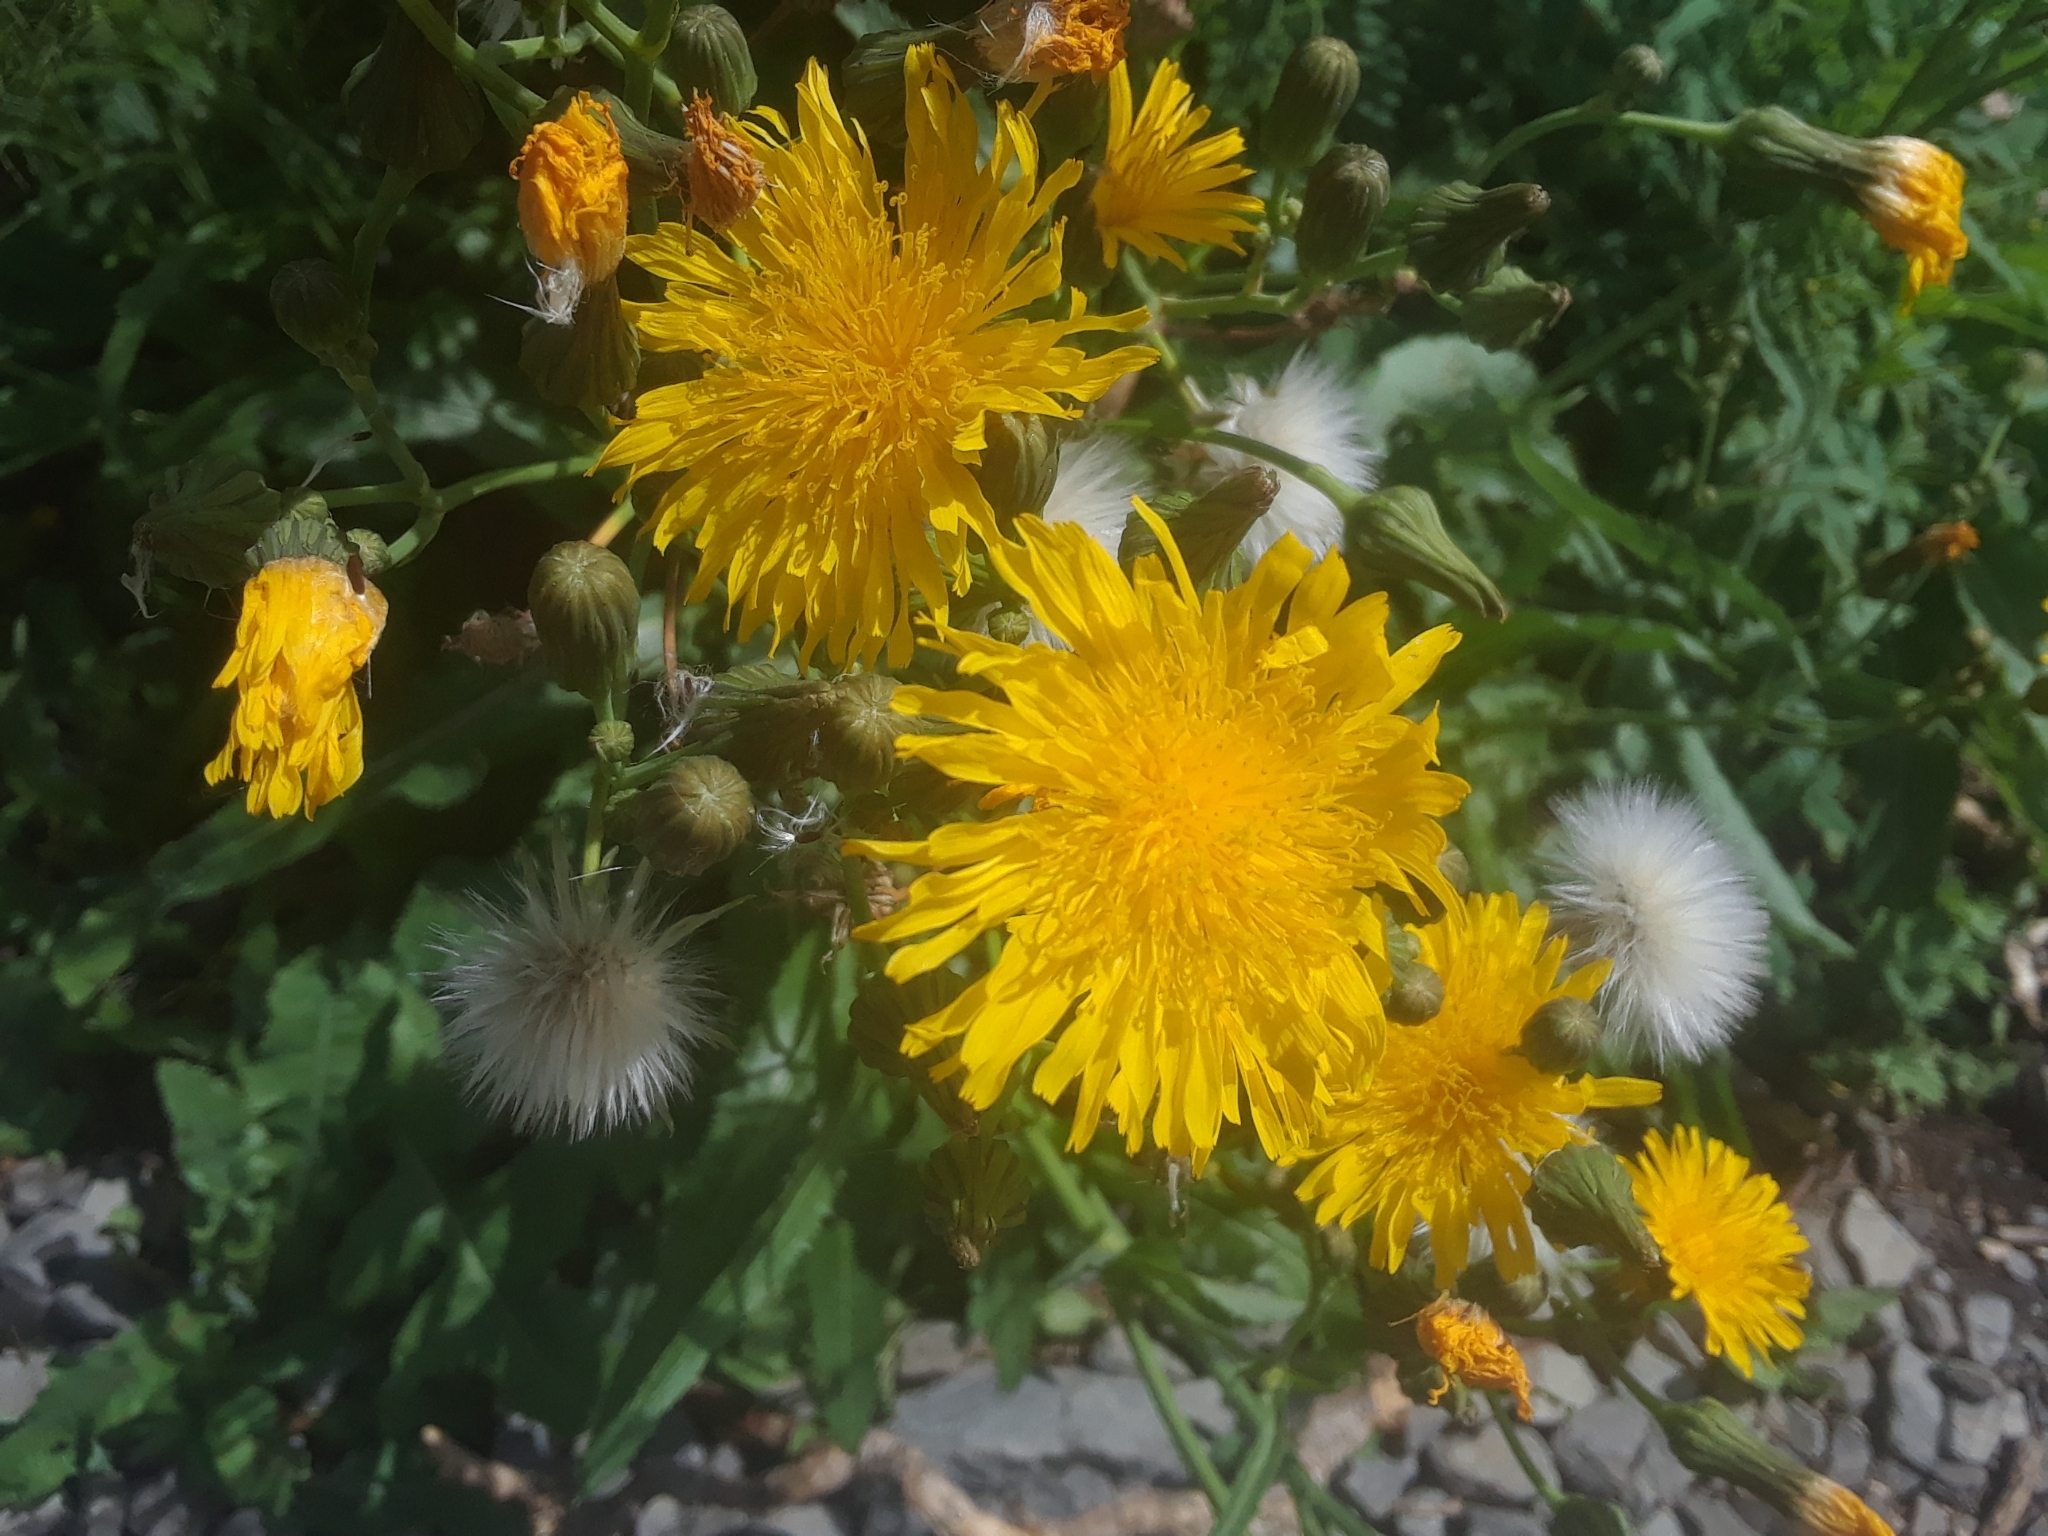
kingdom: Plantae
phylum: Tracheophyta
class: Magnoliopsida
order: Asterales
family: Asteraceae
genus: Sonchus
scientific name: Sonchus arvensis
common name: Perennial sow-thistle
